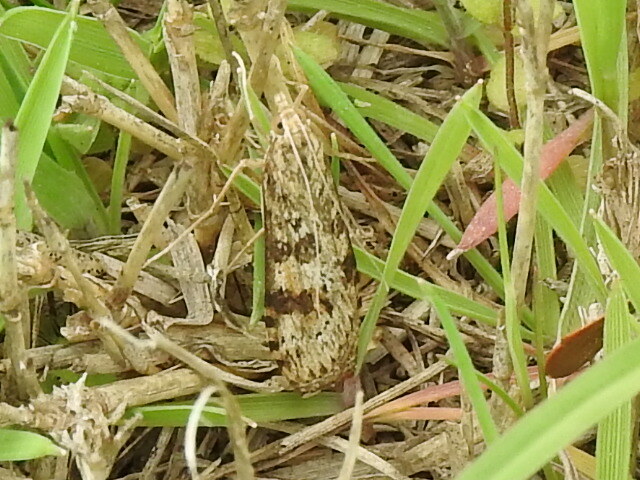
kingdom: Animalia
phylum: Arthropoda
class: Insecta
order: Lepidoptera
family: Crambidae
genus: Nomophila
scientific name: Nomophila nearctica
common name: American rush veneer
